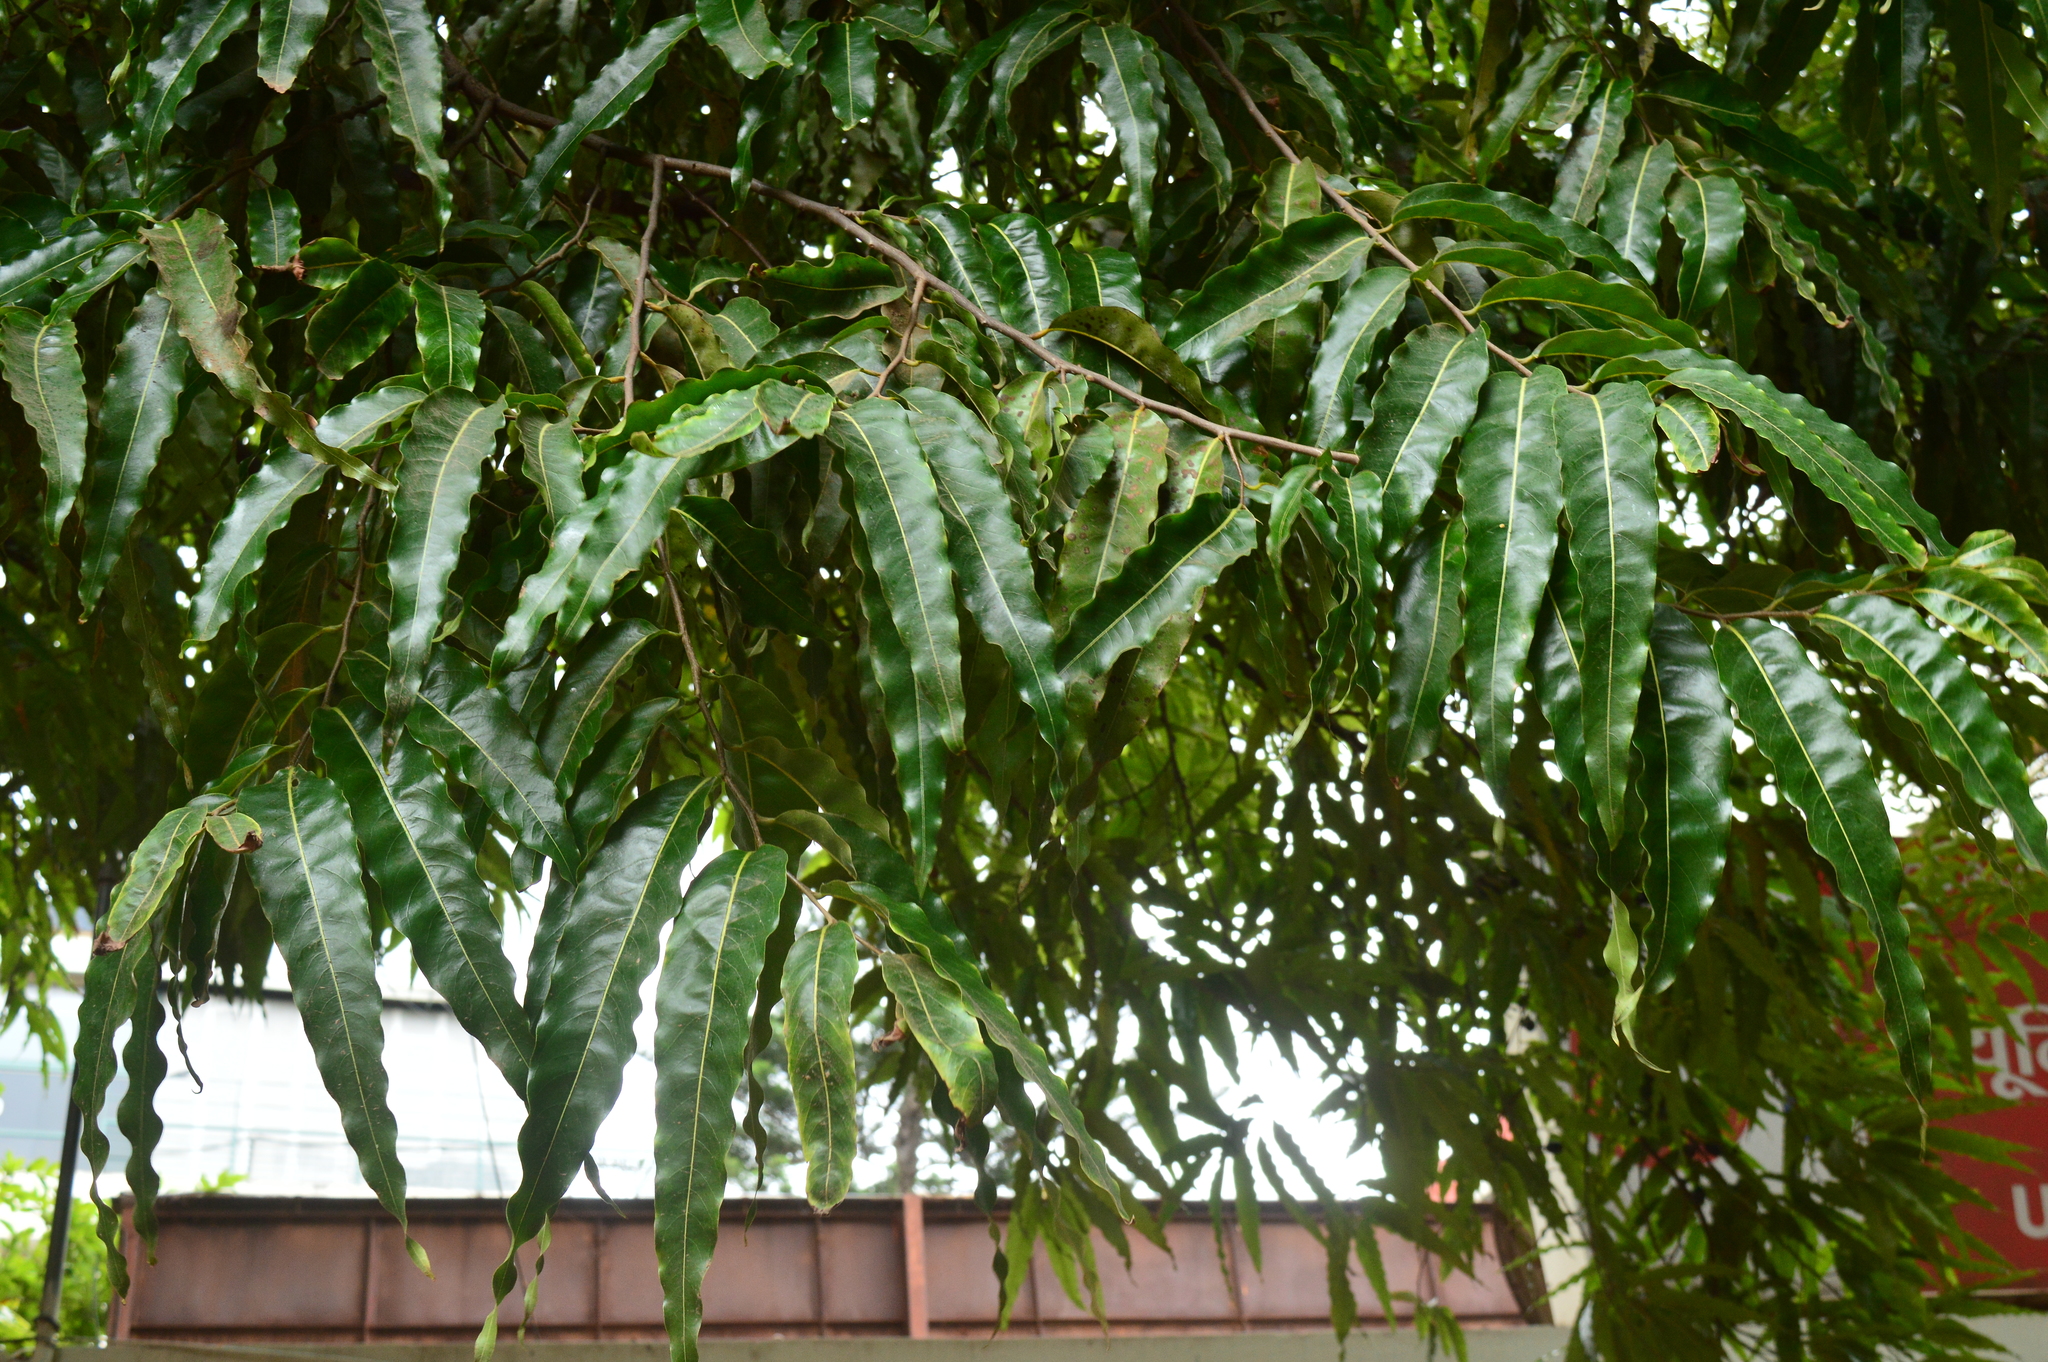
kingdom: Plantae
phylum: Tracheophyta
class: Magnoliopsida
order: Magnoliales
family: Annonaceae
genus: Polyalthia
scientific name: Polyalthia longifolia
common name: Cemetery-tree
